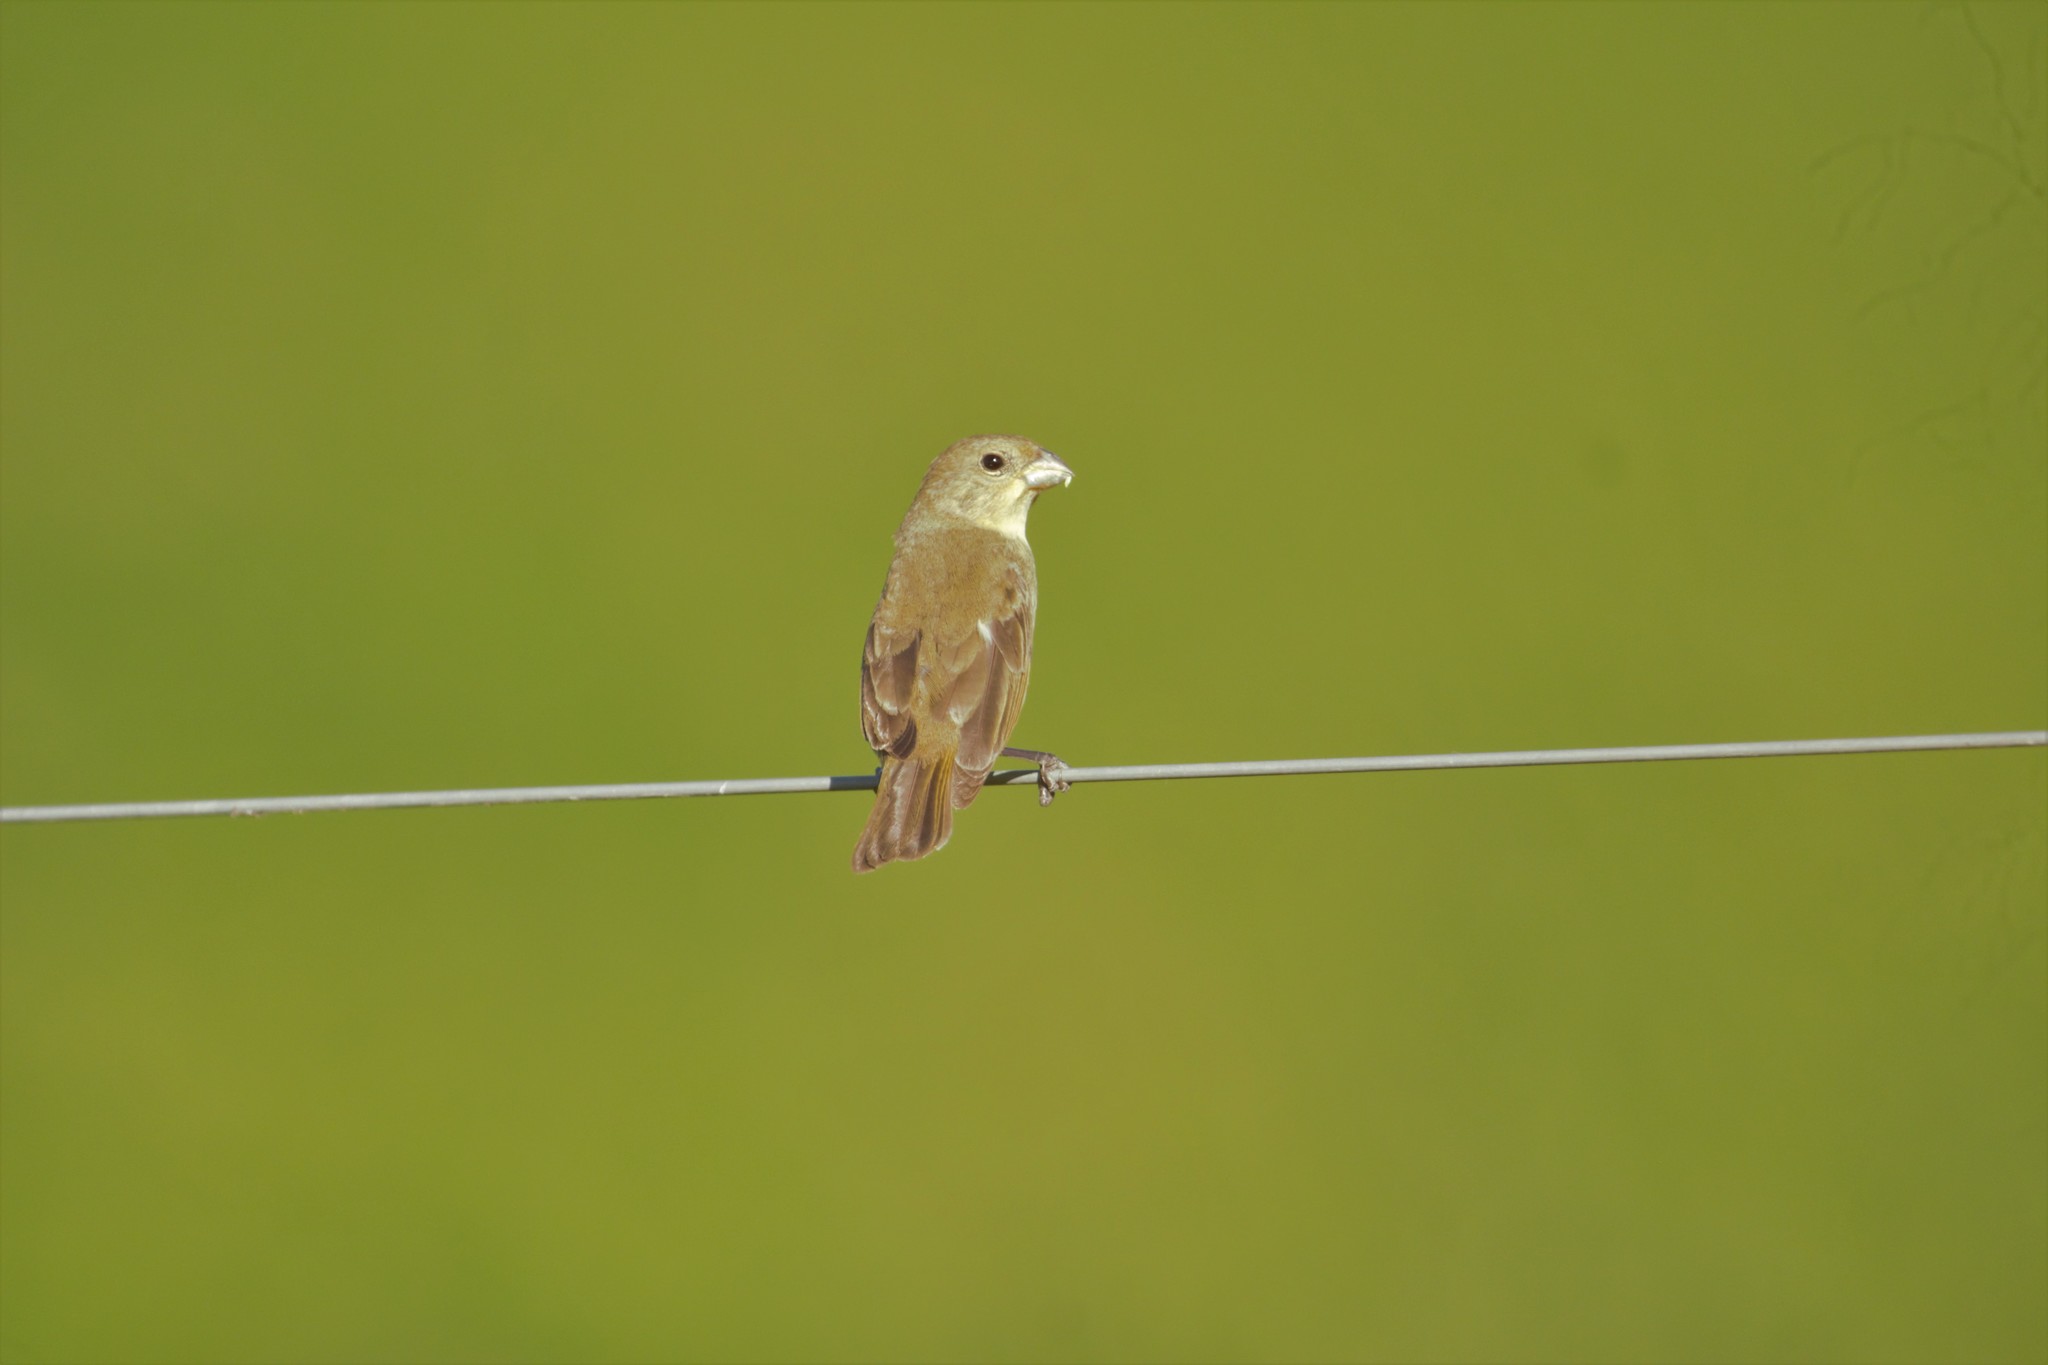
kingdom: Animalia
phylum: Chordata
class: Aves
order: Passeriformes
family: Thraupidae
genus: Sporophila
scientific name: Sporophila caerulescens
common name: Double-collared seedeater
